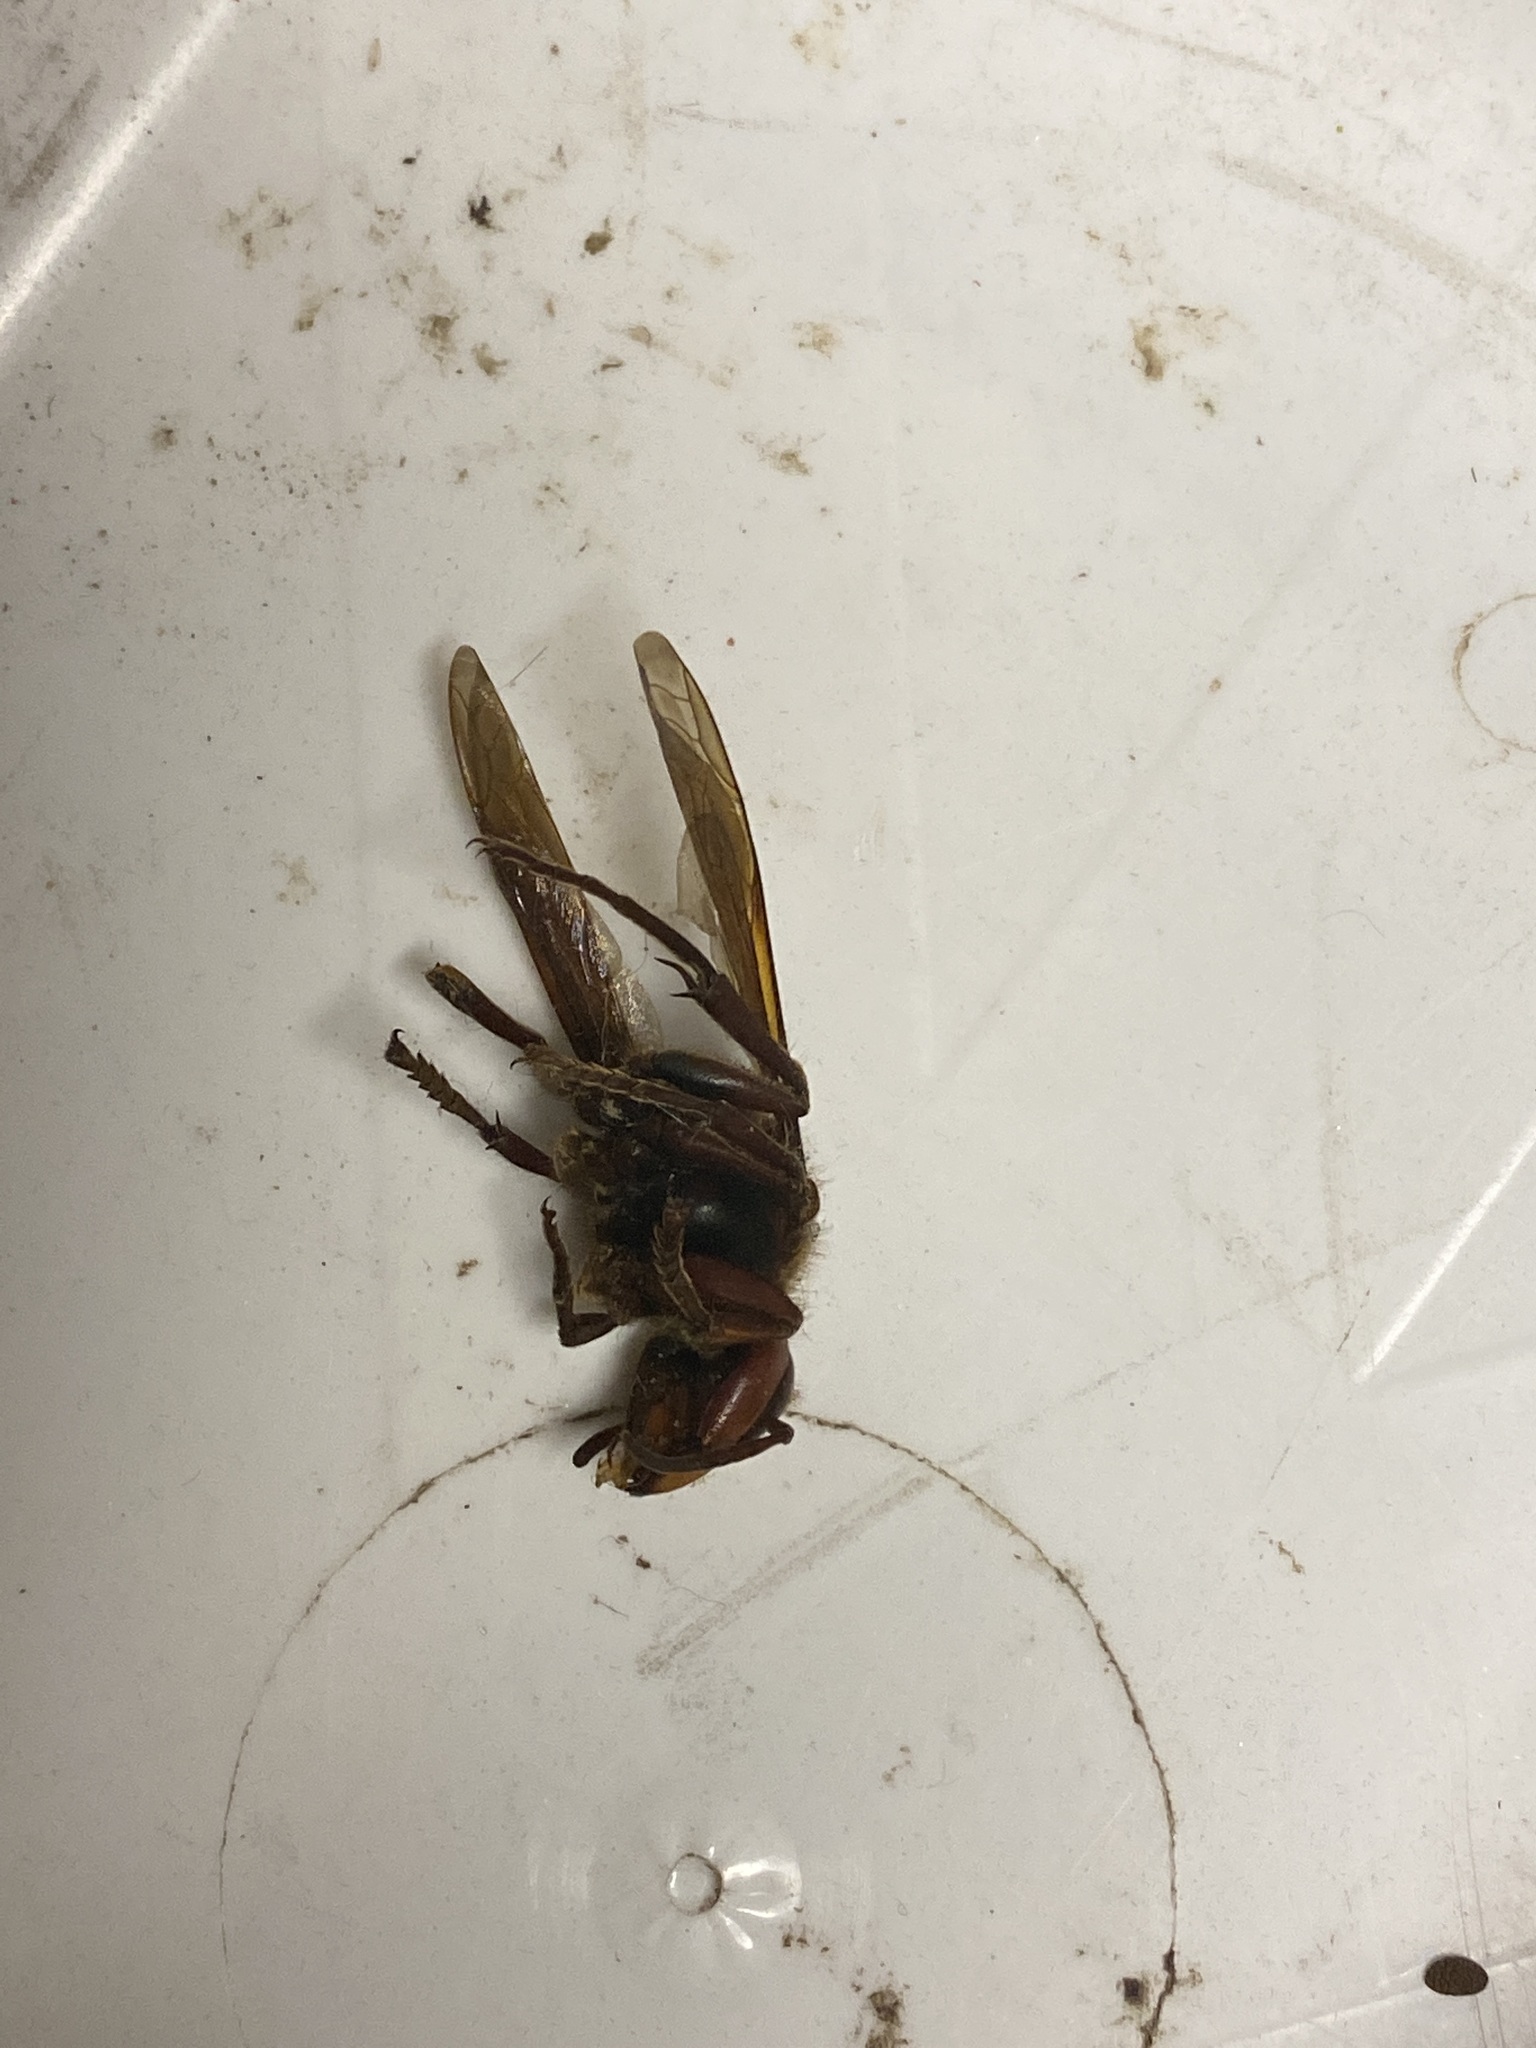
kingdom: Animalia
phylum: Arthropoda
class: Insecta
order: Hymenoptera
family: Vespidae
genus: Vespa
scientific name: Vespa crabro
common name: Hornet
